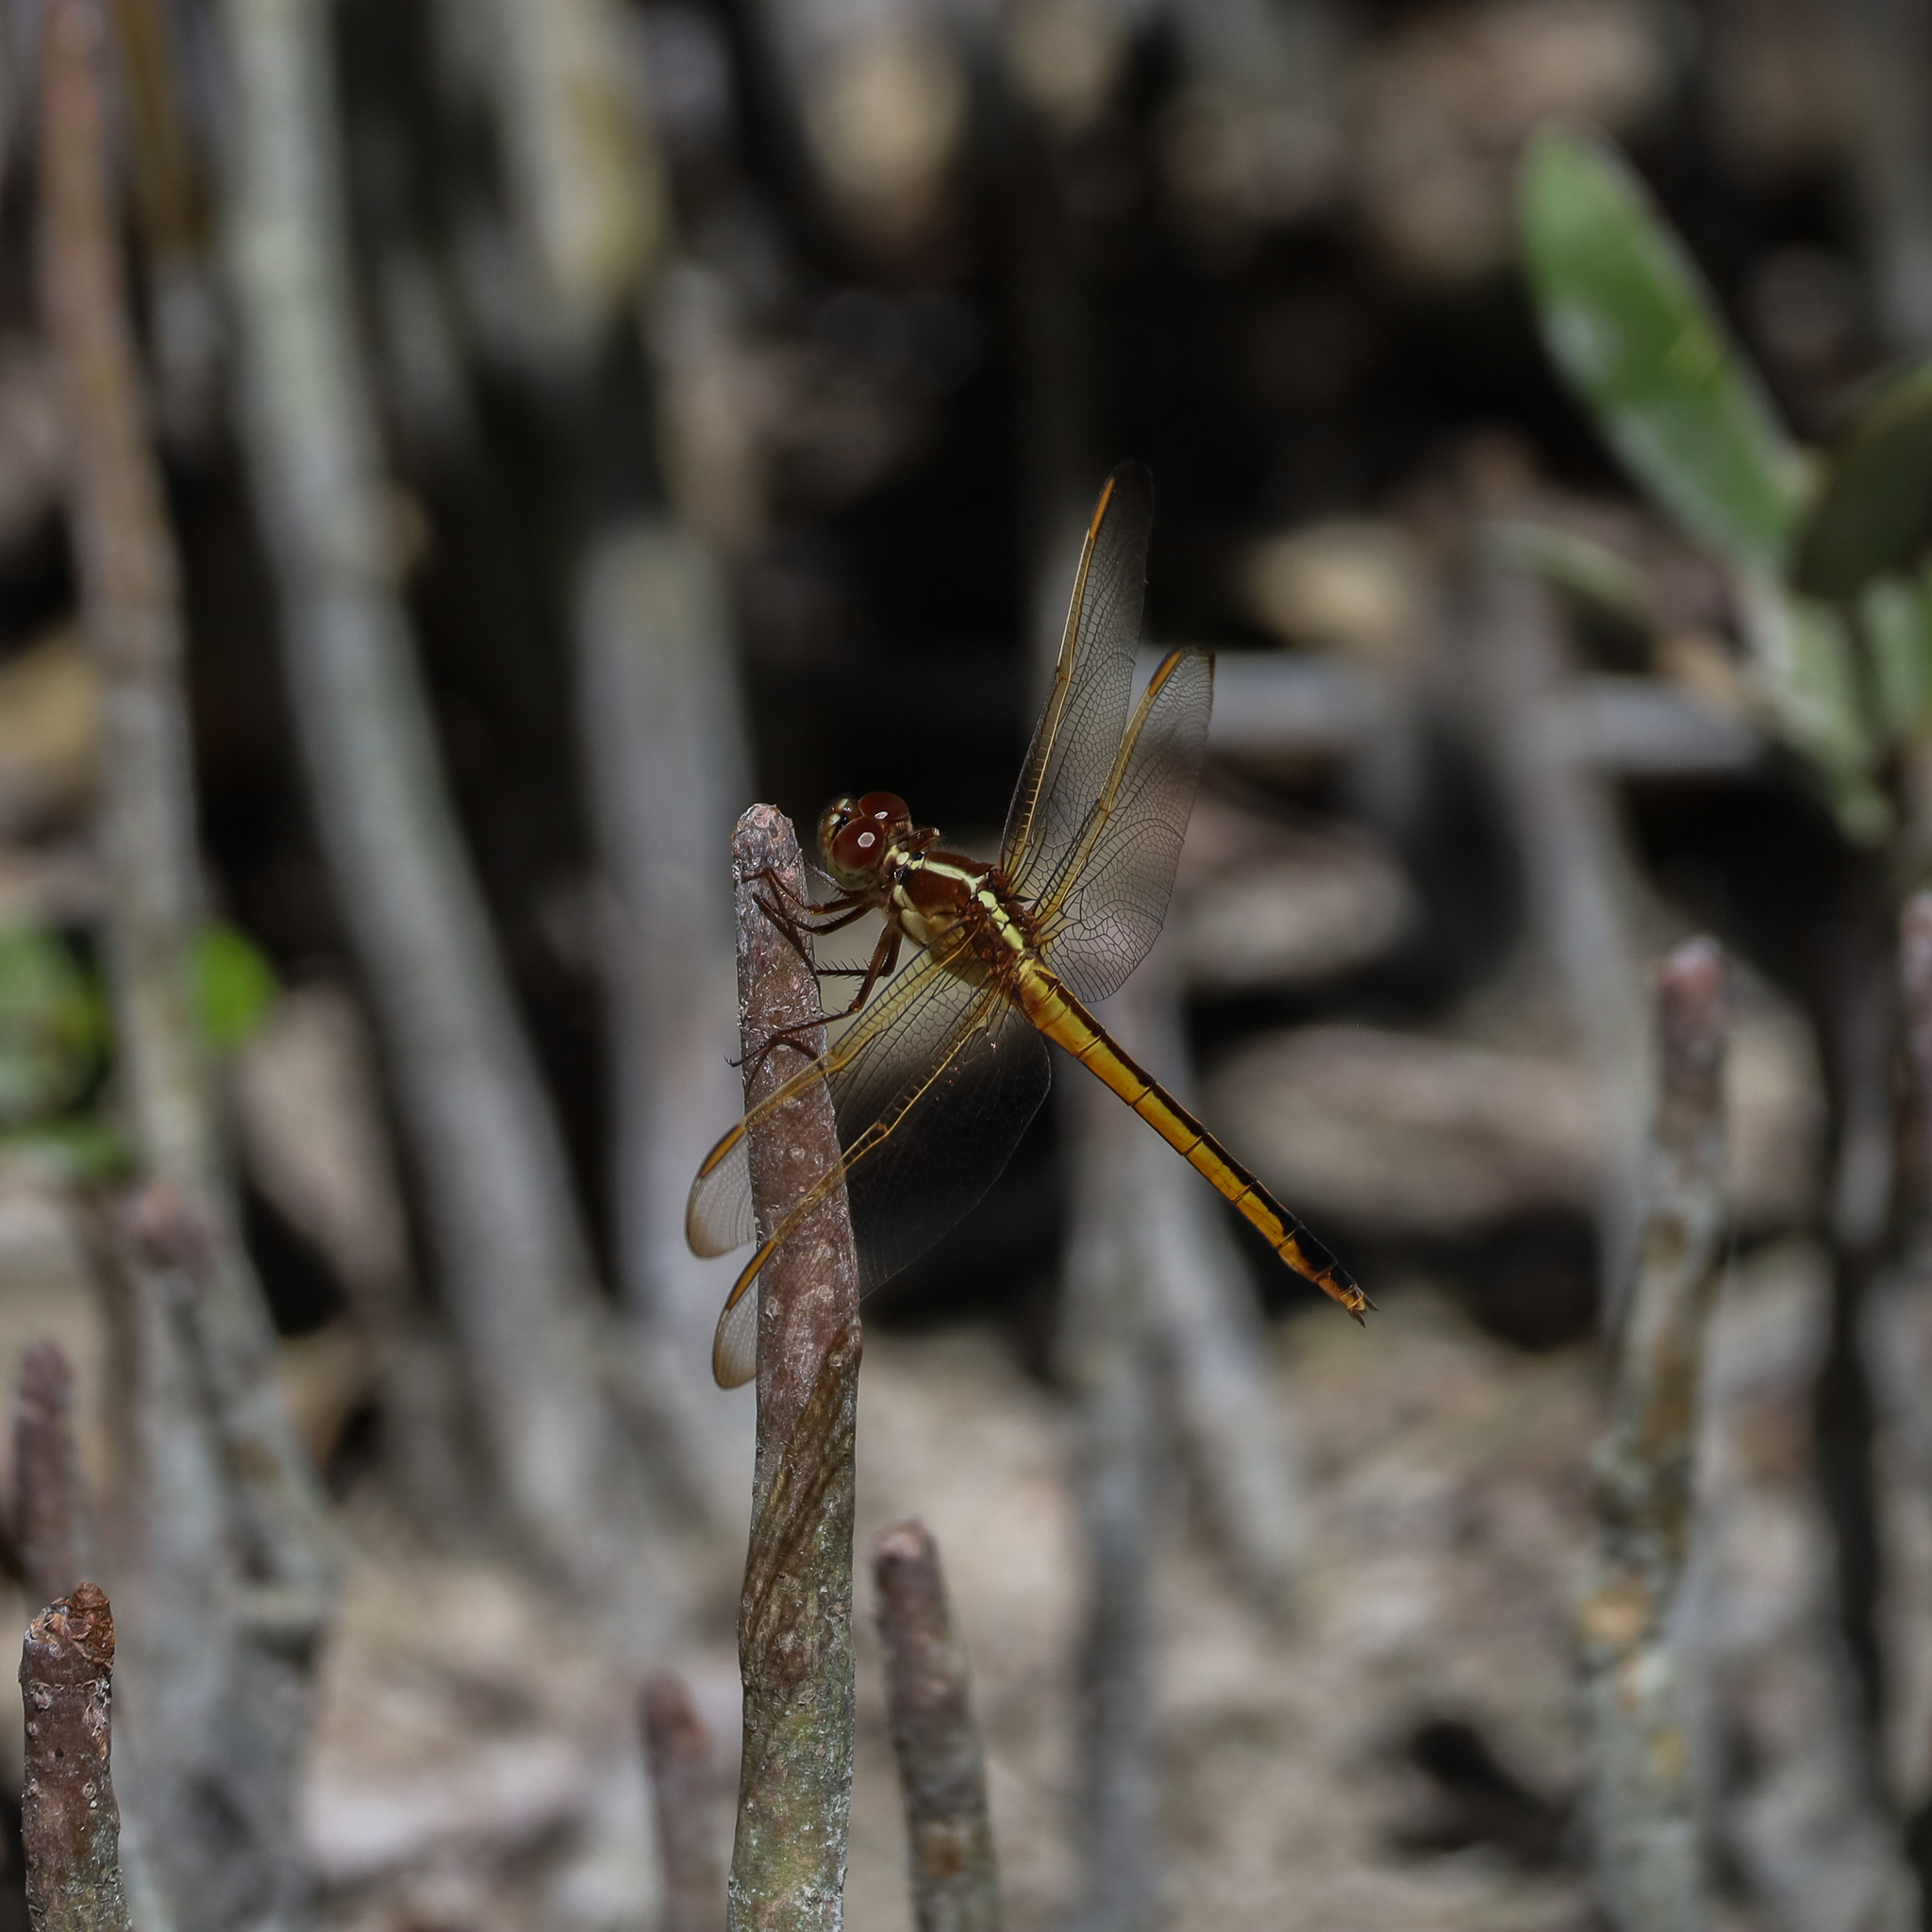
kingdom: Animalia
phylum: Arthropoda
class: Insecta
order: Odonata
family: Libellulidae
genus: Libellula
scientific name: Libellula needhami
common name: Needham's skimmer
